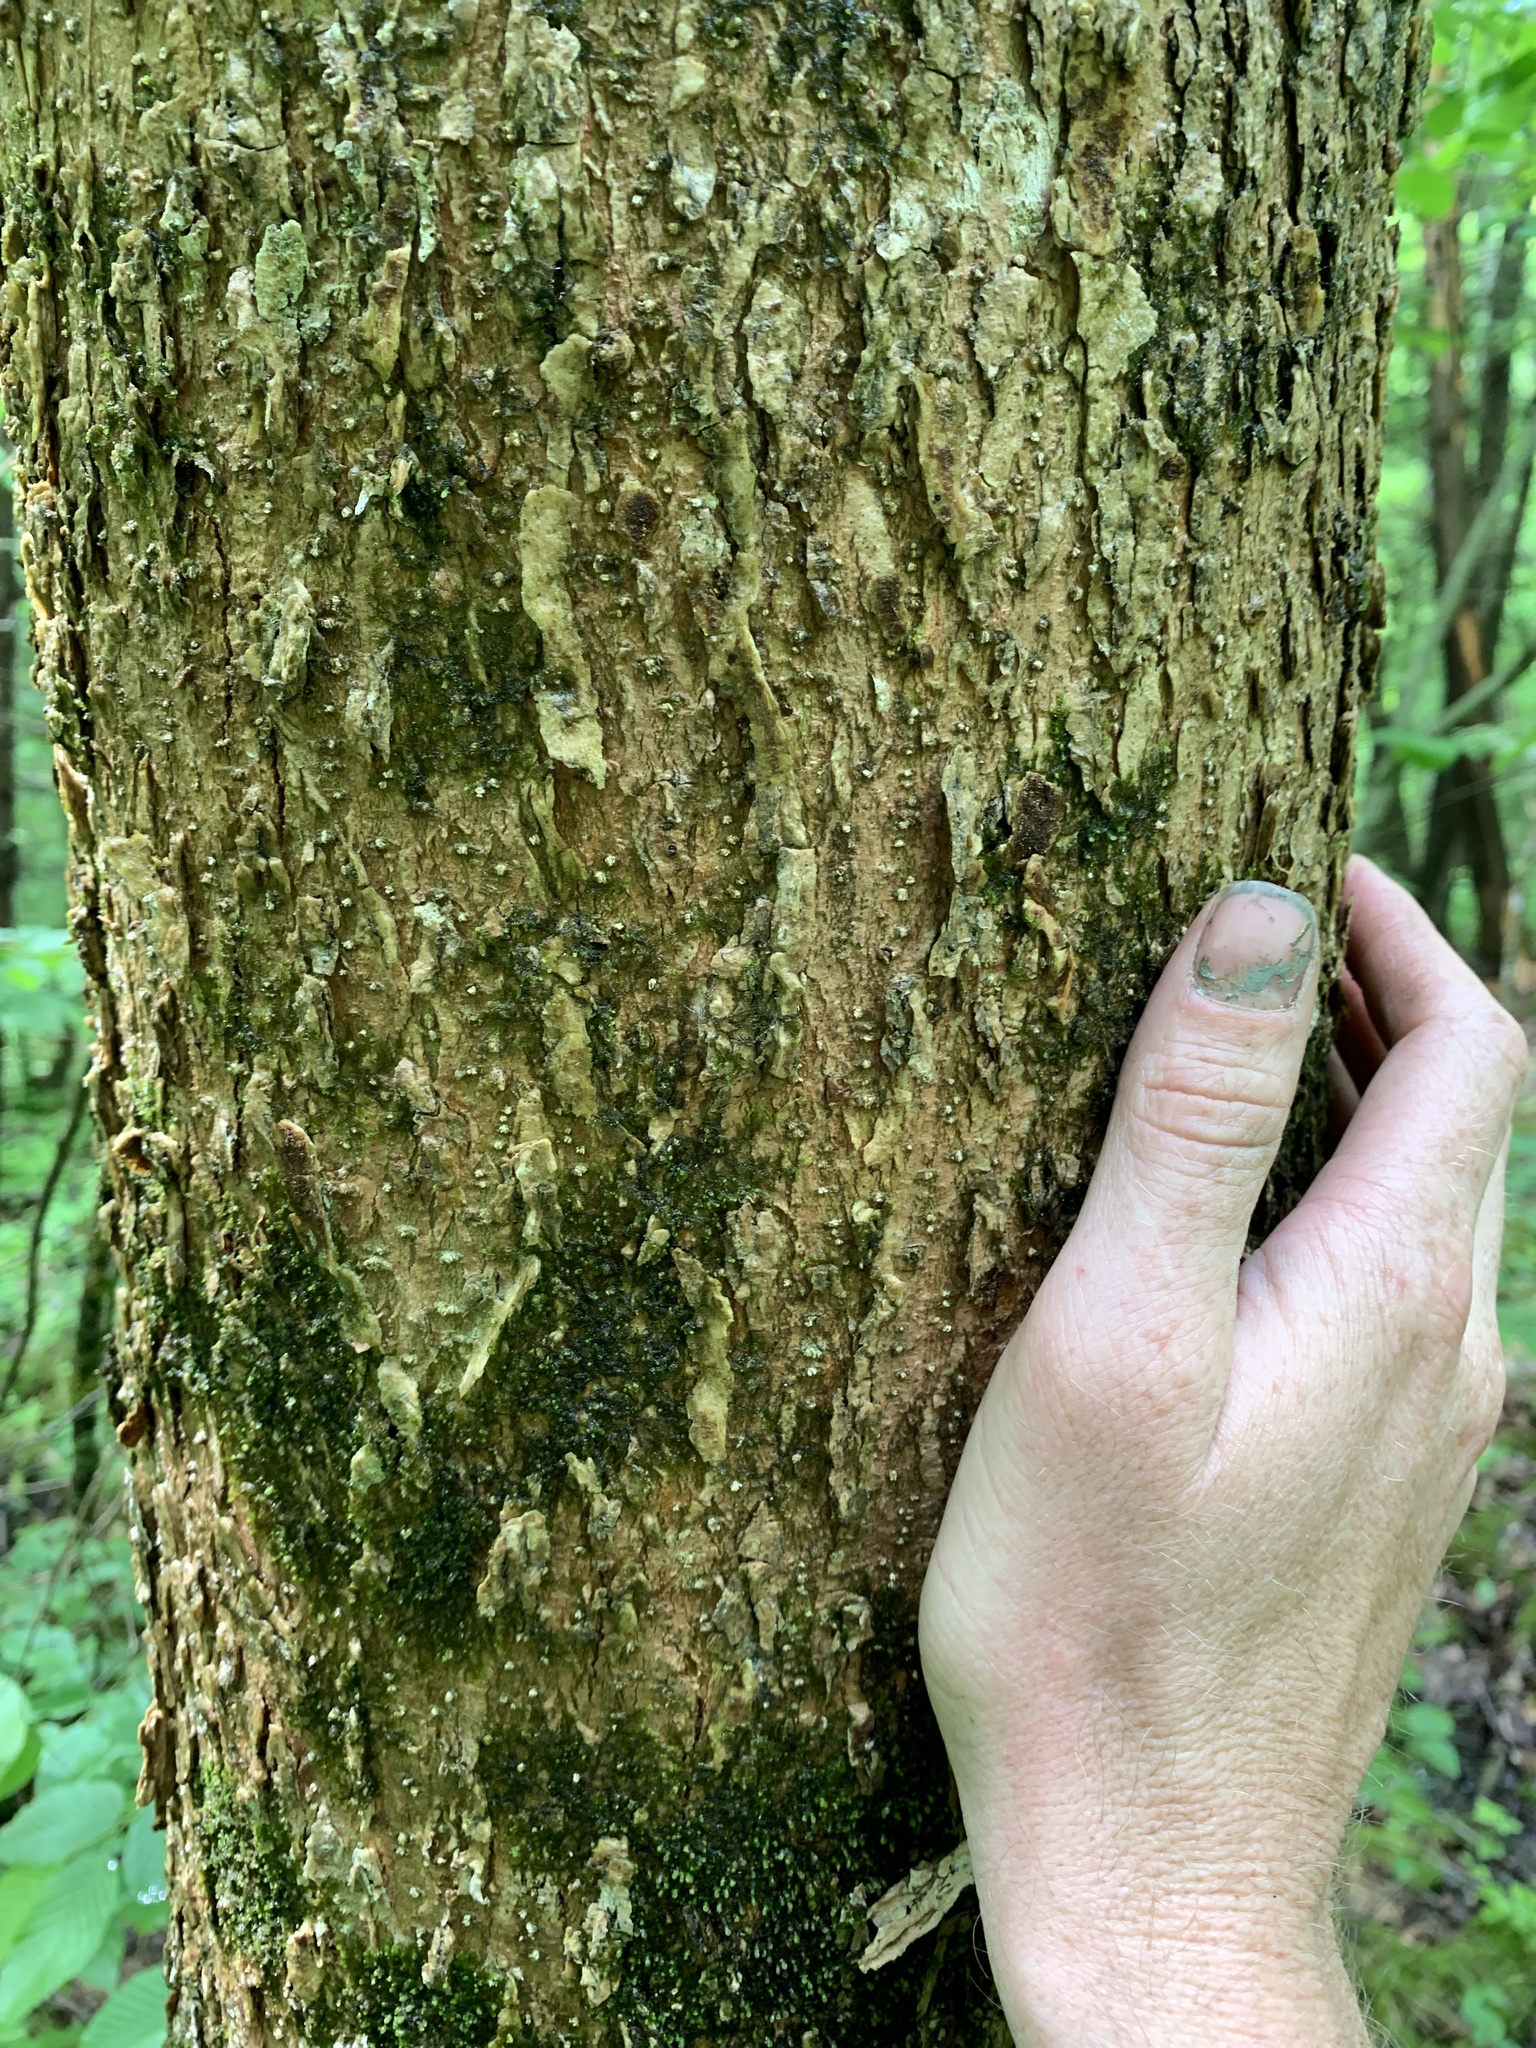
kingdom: Plantae
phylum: Tracheophyta
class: Magnoliopsida
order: Lamiales
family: Oleaceae
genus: Fraxinus
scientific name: Fraxinus nigra
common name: Black ash
